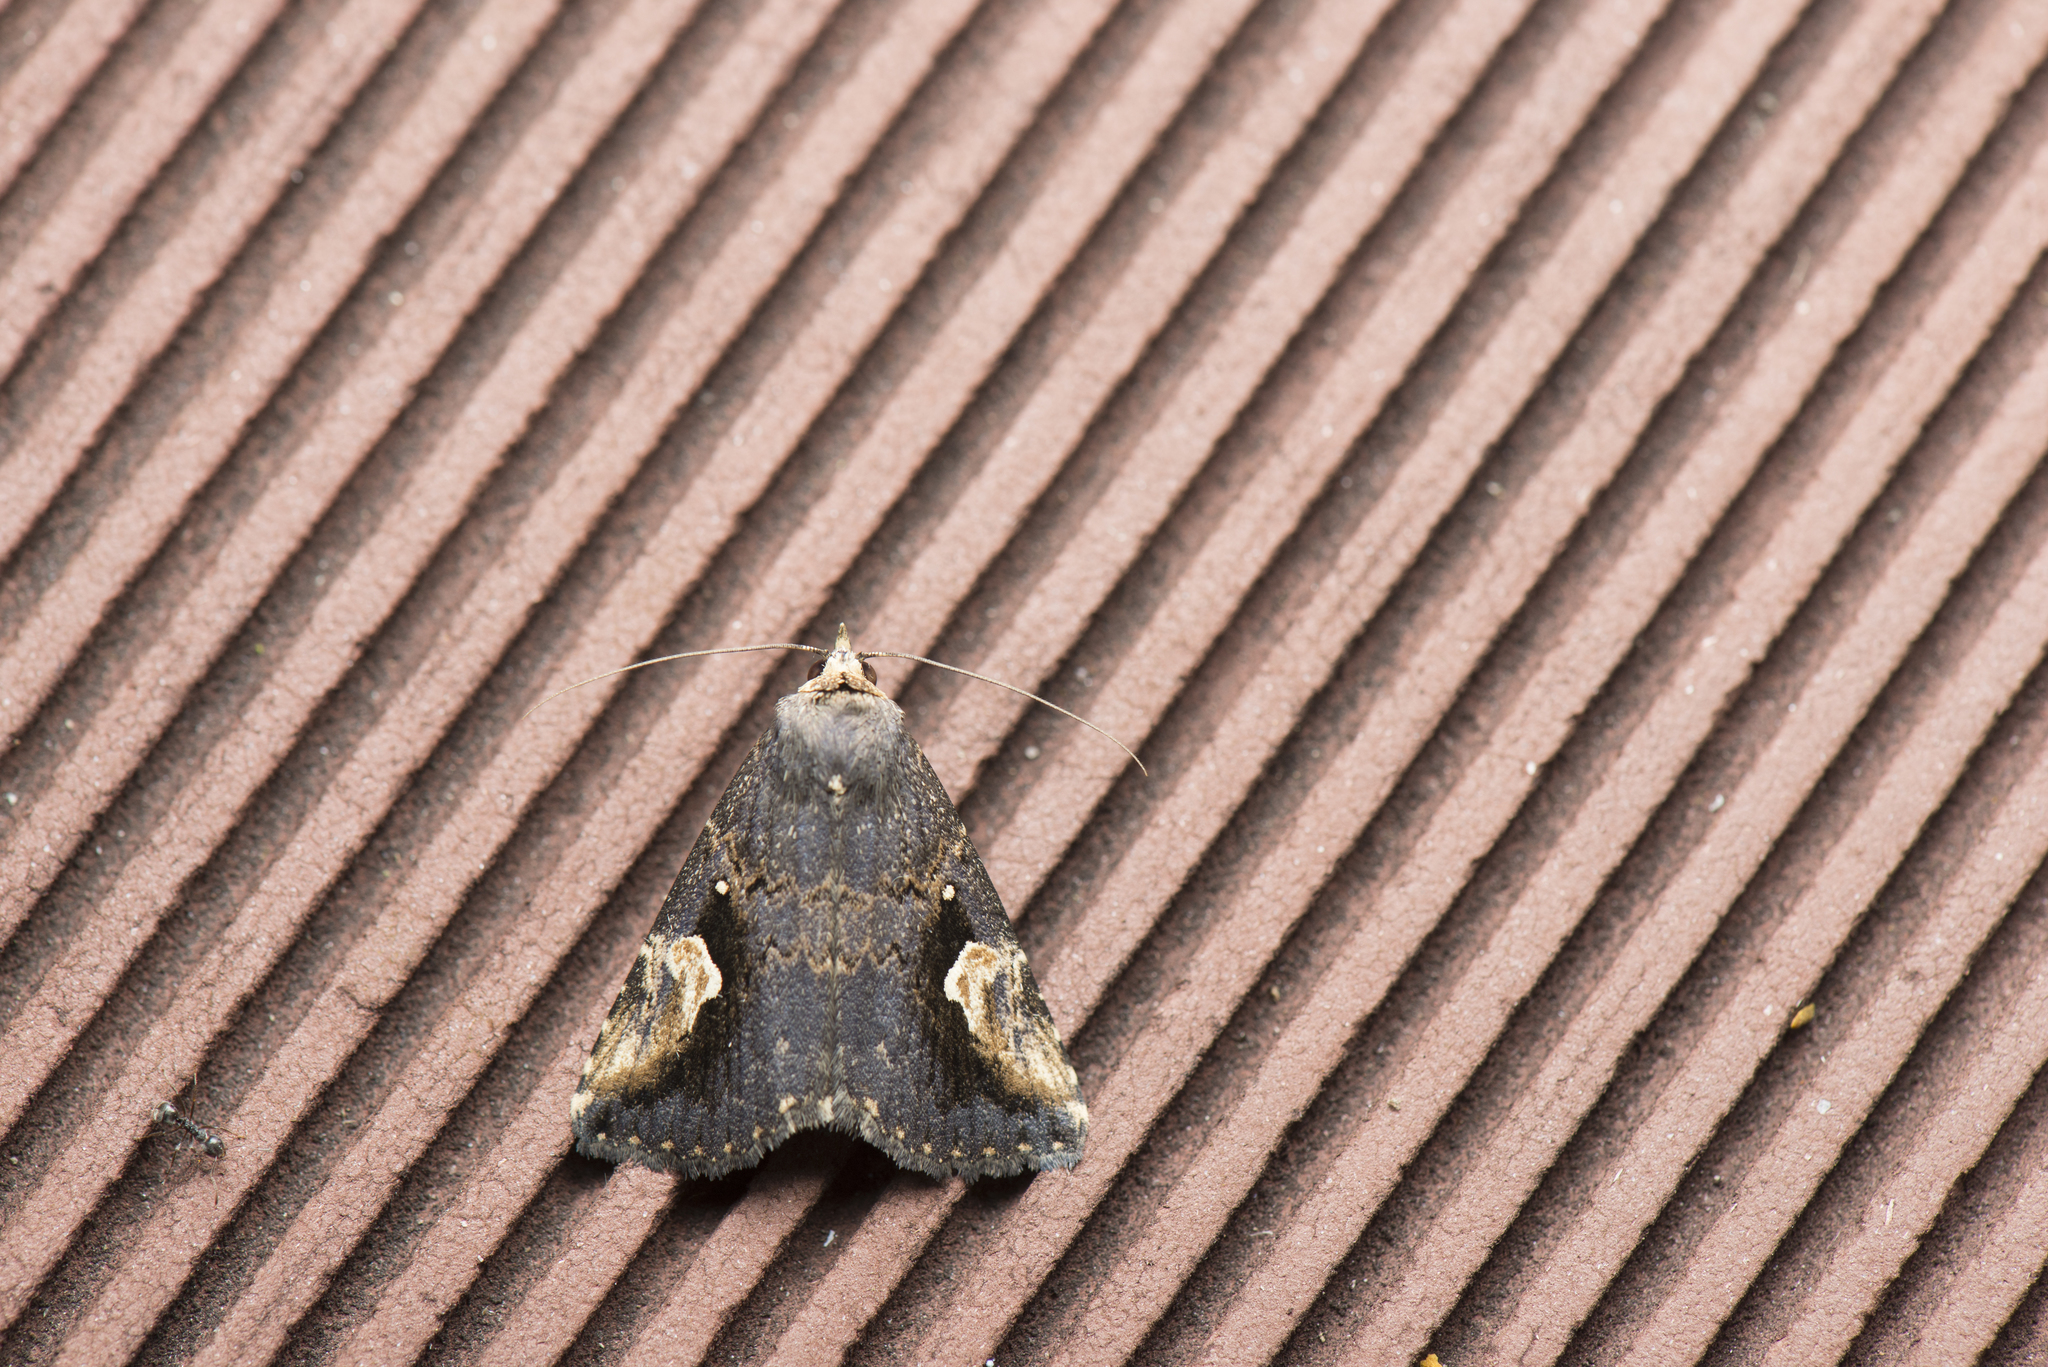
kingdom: Animalia
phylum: Arthropoda
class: Insecta
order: Lepidoptera
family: Erebidae
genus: Pseudosphetta
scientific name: Pseudosphetta moorei
